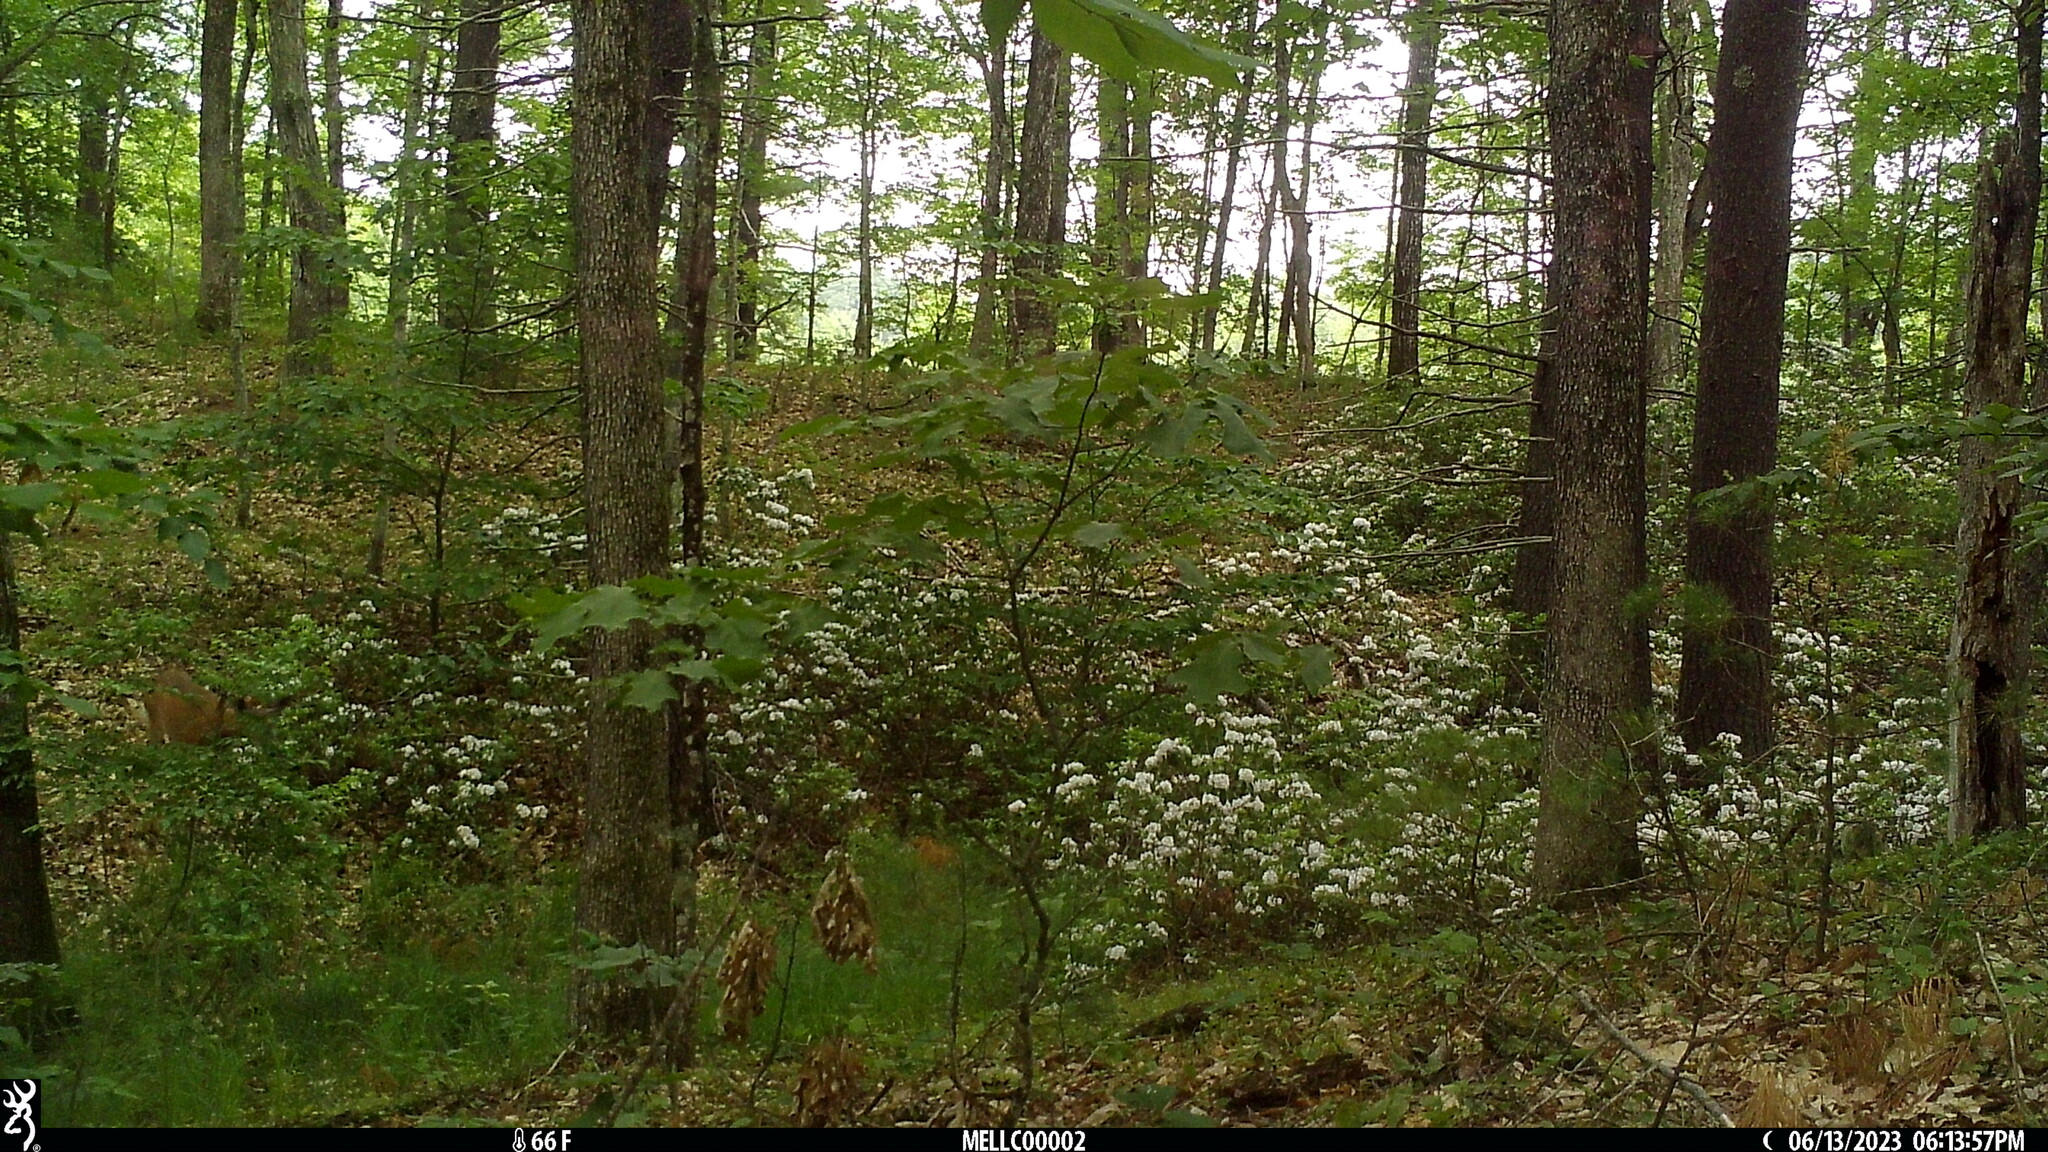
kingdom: Animalia
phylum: Chordata
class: Mammalia
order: Artiodactyla
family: Cervidae
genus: Odocoileus
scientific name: Odocoileus virginianus
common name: White-tailed deer
